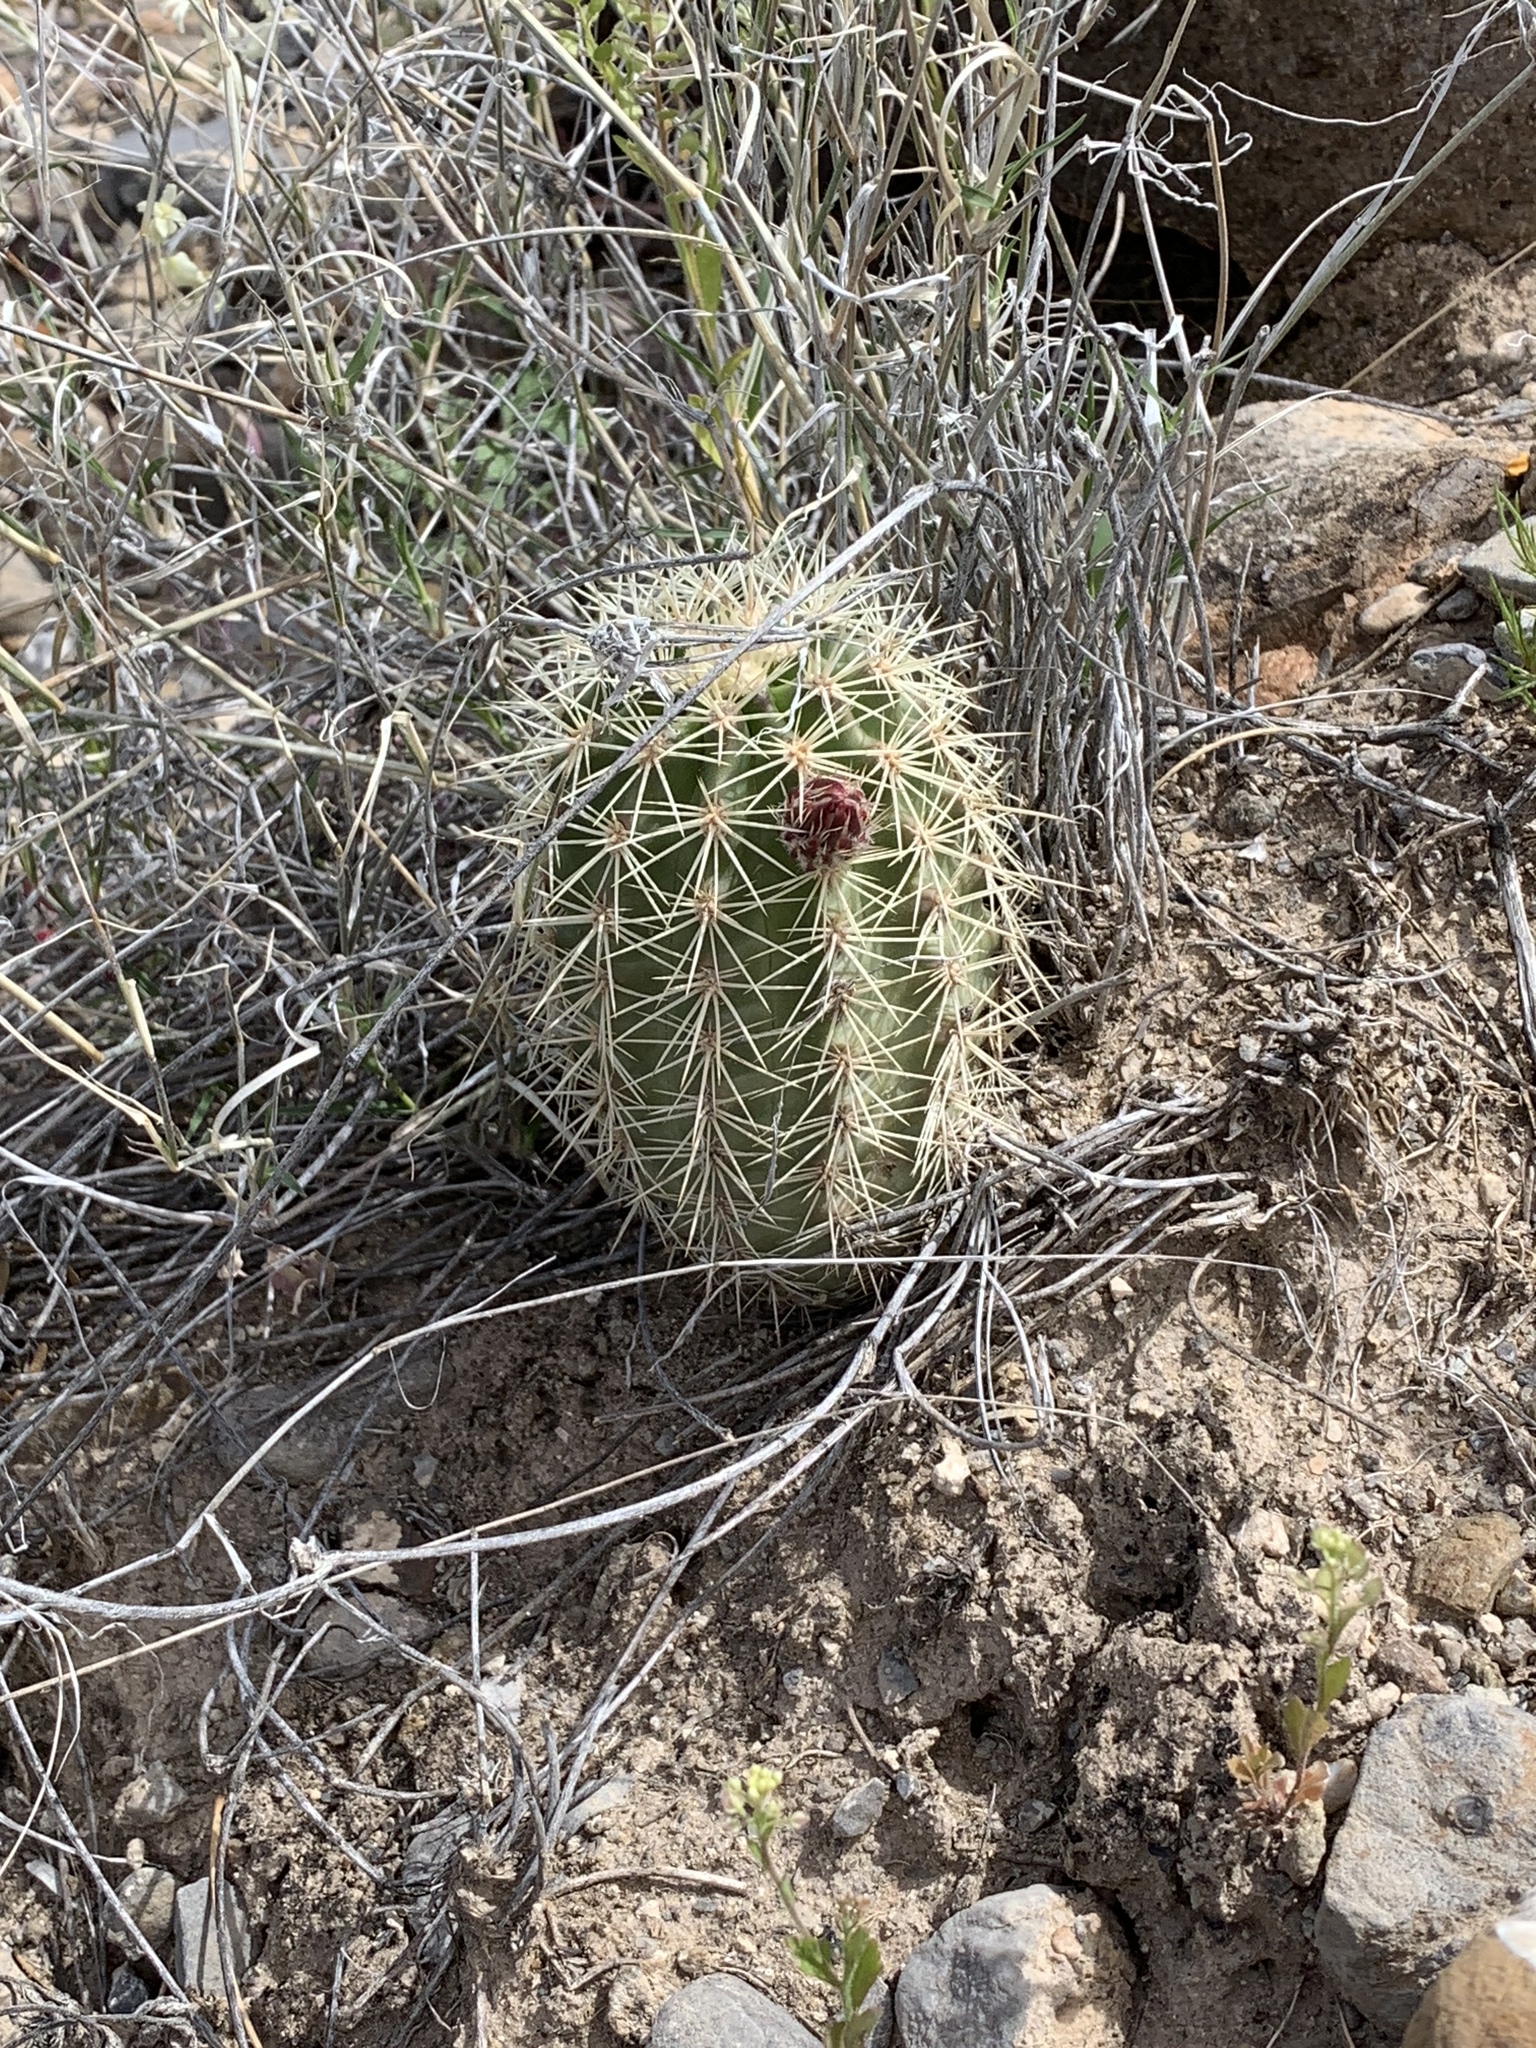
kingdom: Plantae
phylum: Tracheophyta
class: Magnoliopsida
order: Caryophyllales
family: Cactaceae
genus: Echinocereus
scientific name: Echinocereus coccineus
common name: Scarlet hedgehog cactus
